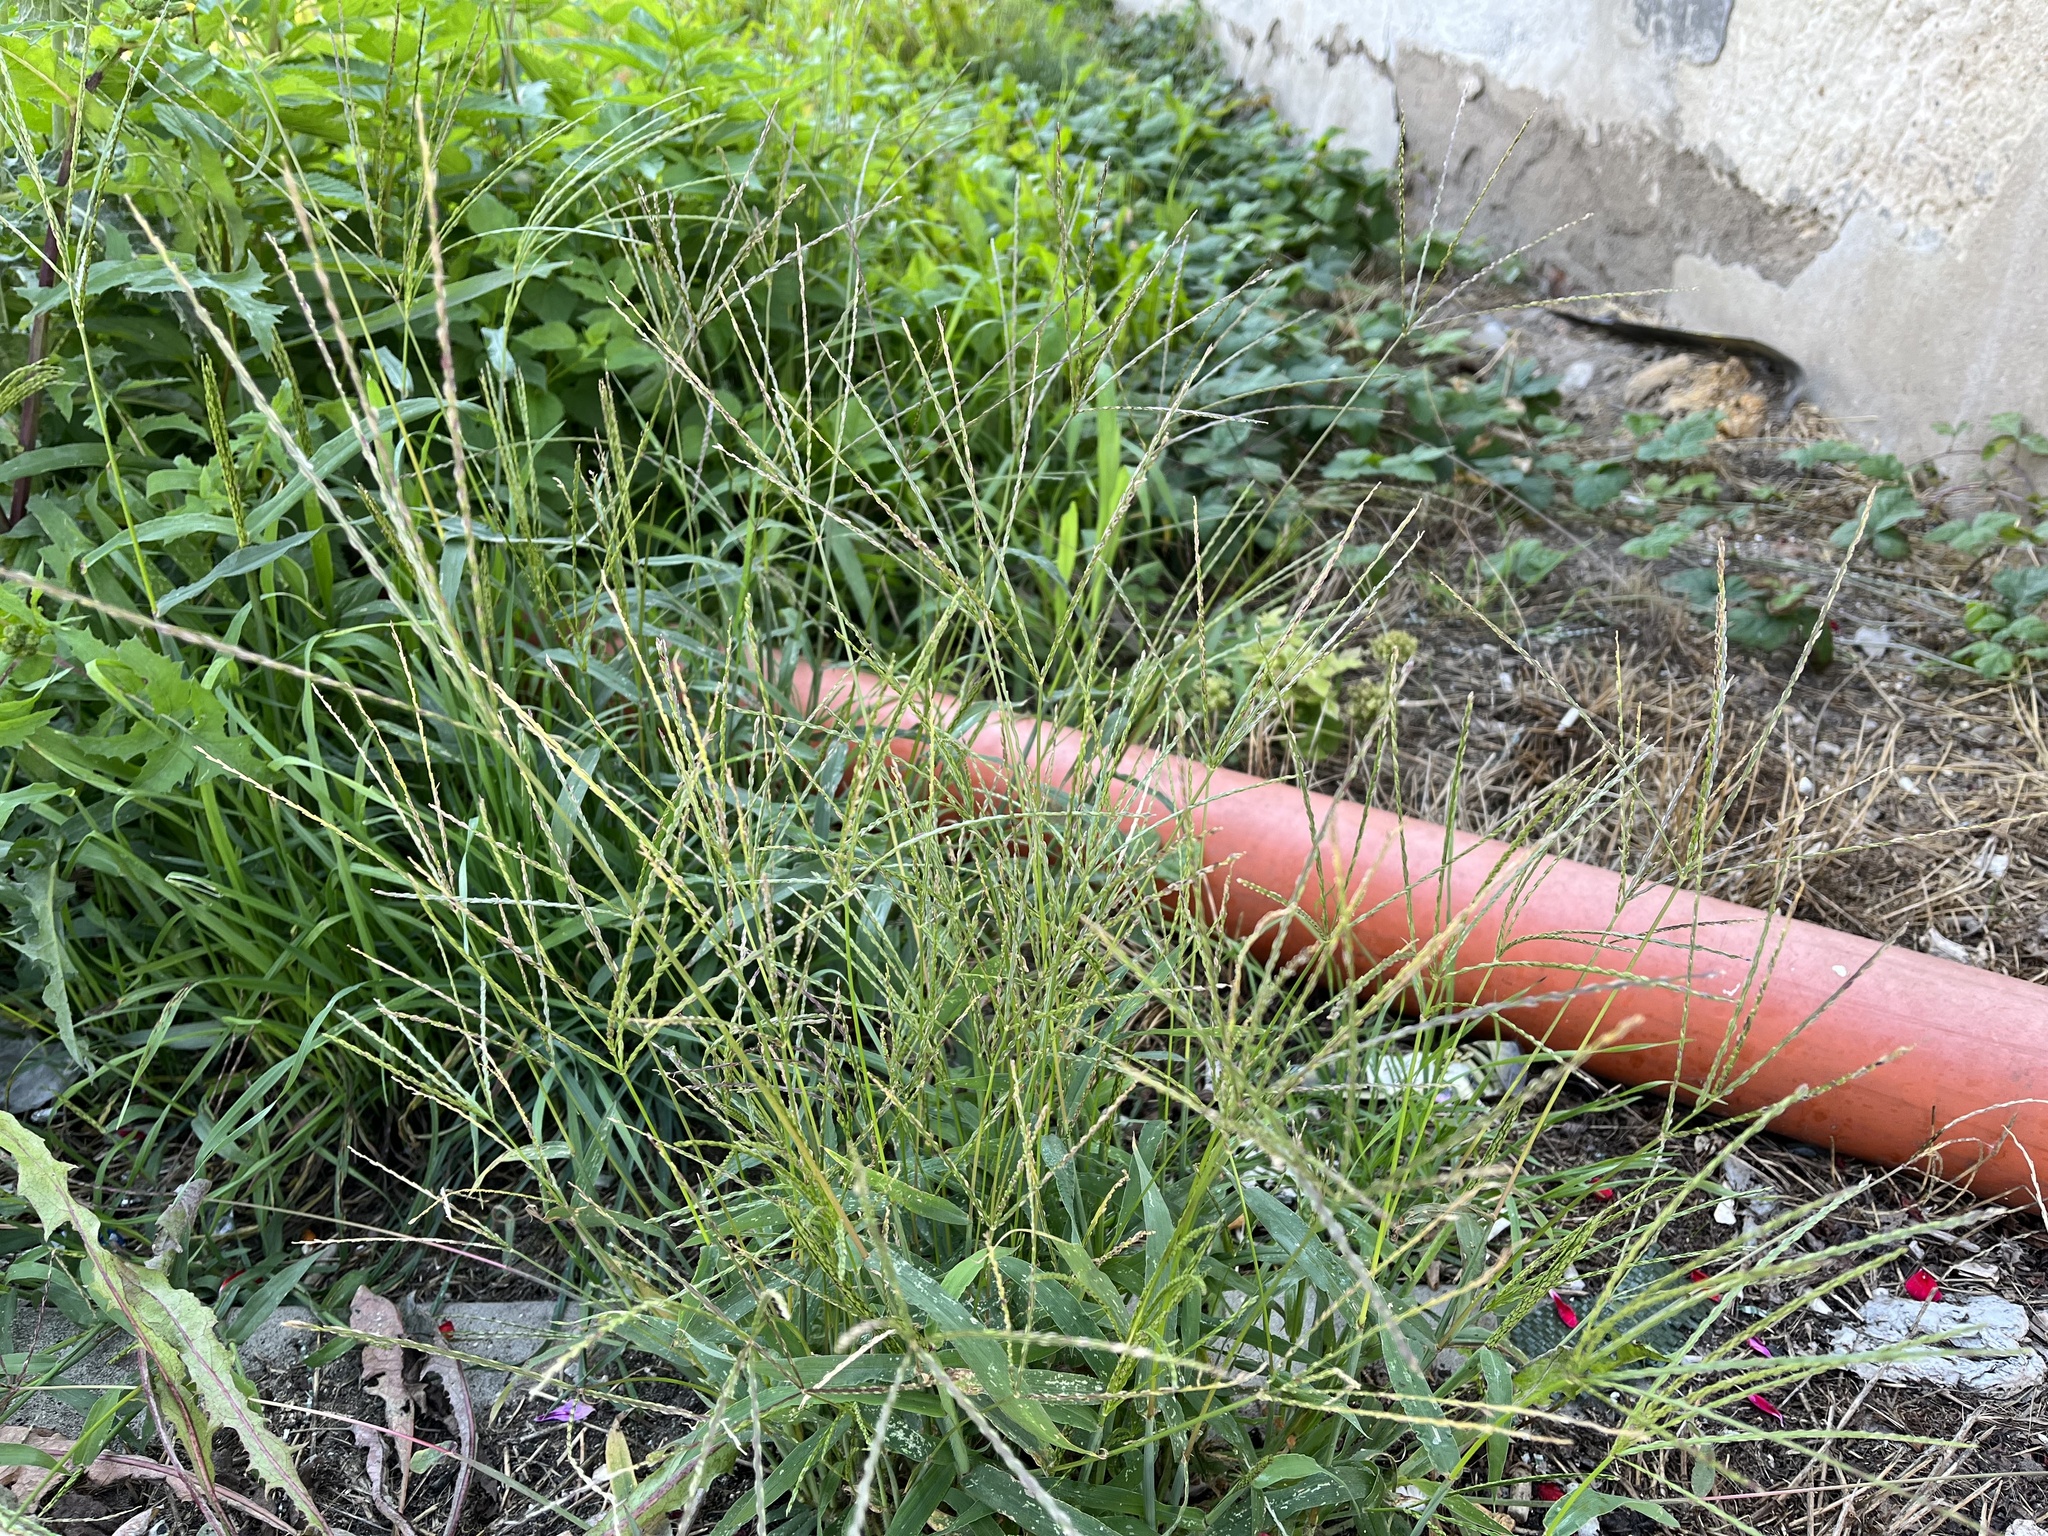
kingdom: Plantae
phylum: Tracheophyta
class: Liliopsida
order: Poales
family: Poaceae
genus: Digitaria
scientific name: Digitaria sanguinalis
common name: Hairy crabgrass
